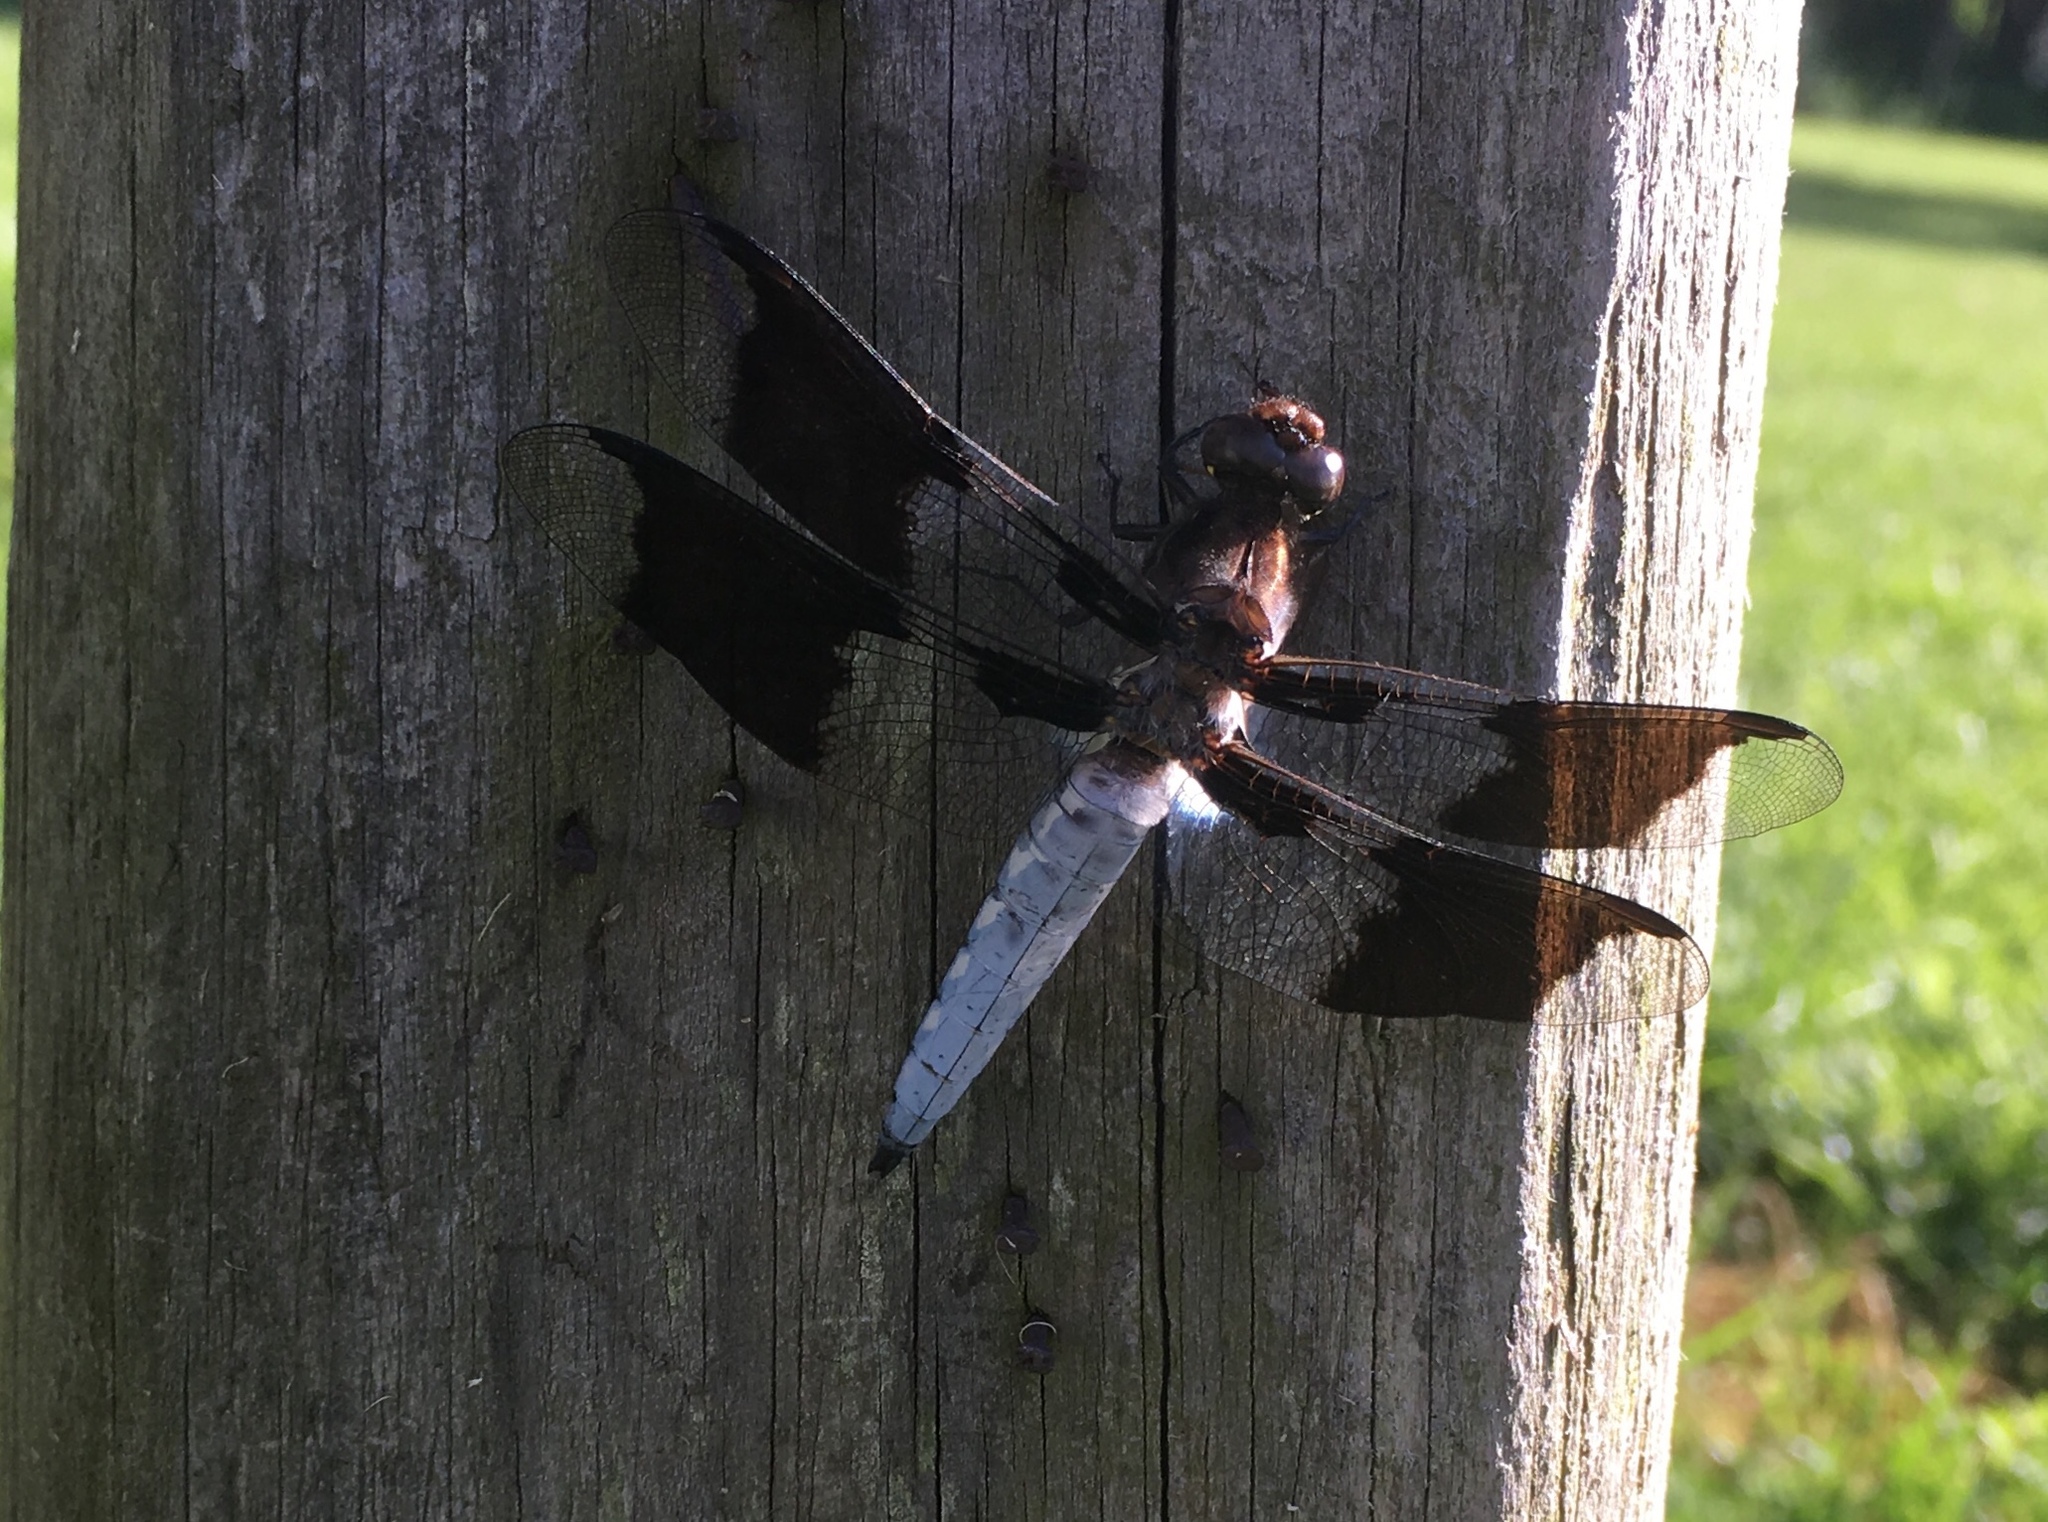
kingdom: Animalia
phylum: Arthropoda
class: Insecta
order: Odonata
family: Libellulidae
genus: Plathemis
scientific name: Plathemis lydia
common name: Common whitetail
